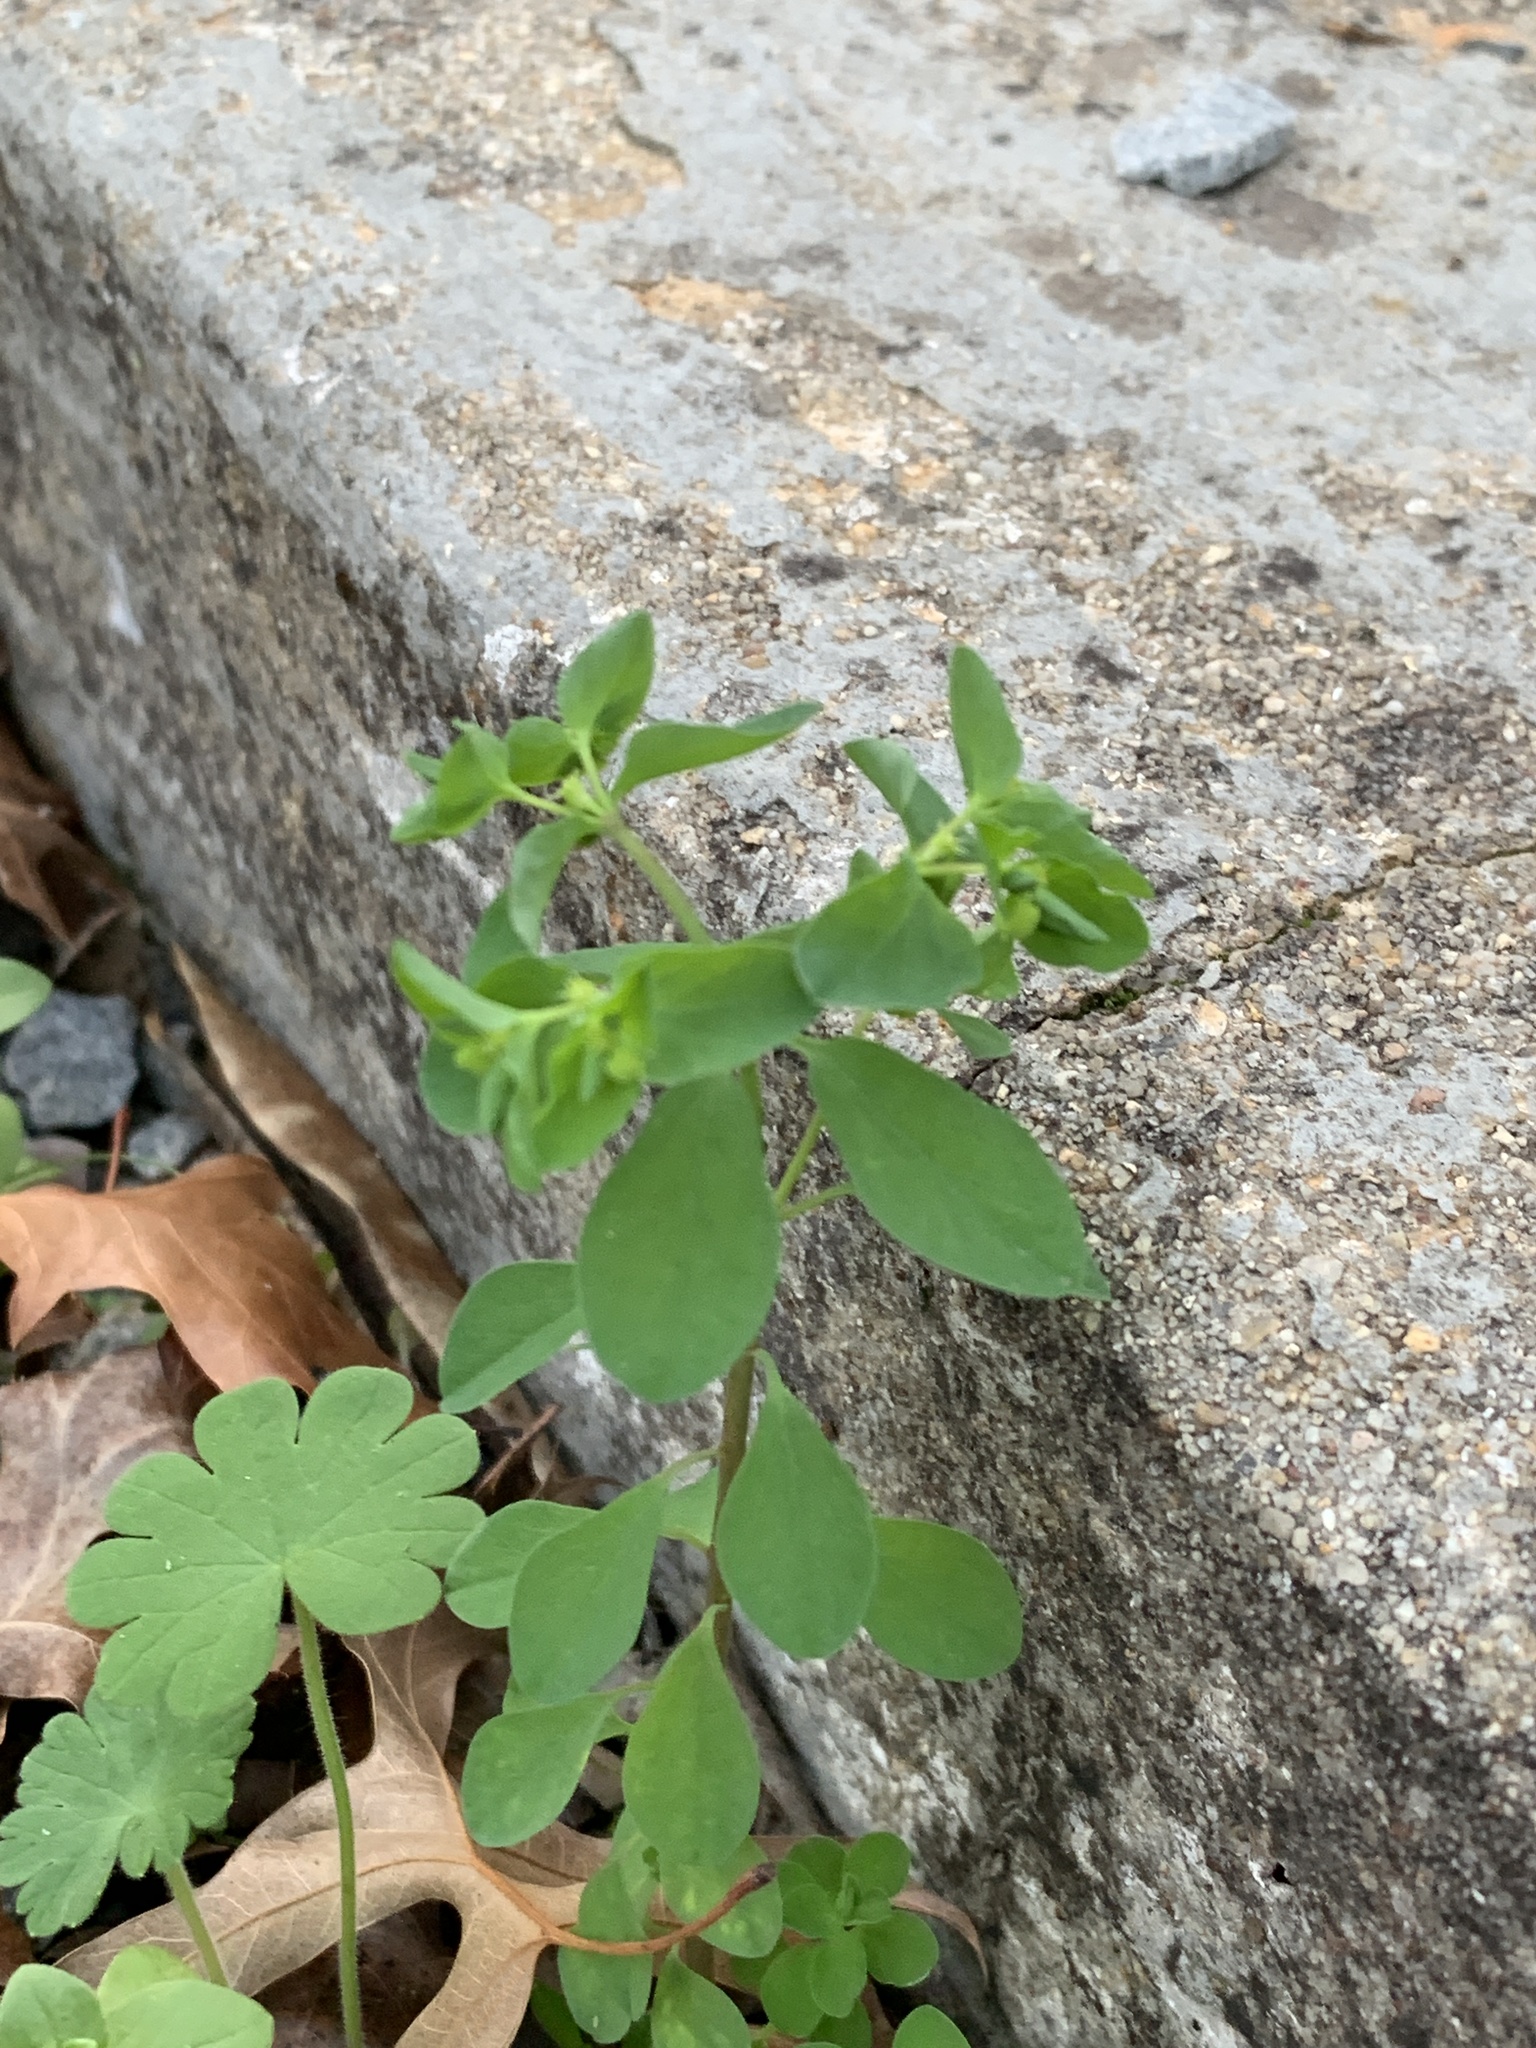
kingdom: Plantae
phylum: Tracheophyta
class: Magnoliopsida
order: Malpighiales
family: Euphorbiaceae
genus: Euphorbia
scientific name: Euphorbia peplus
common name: Petty spurge
